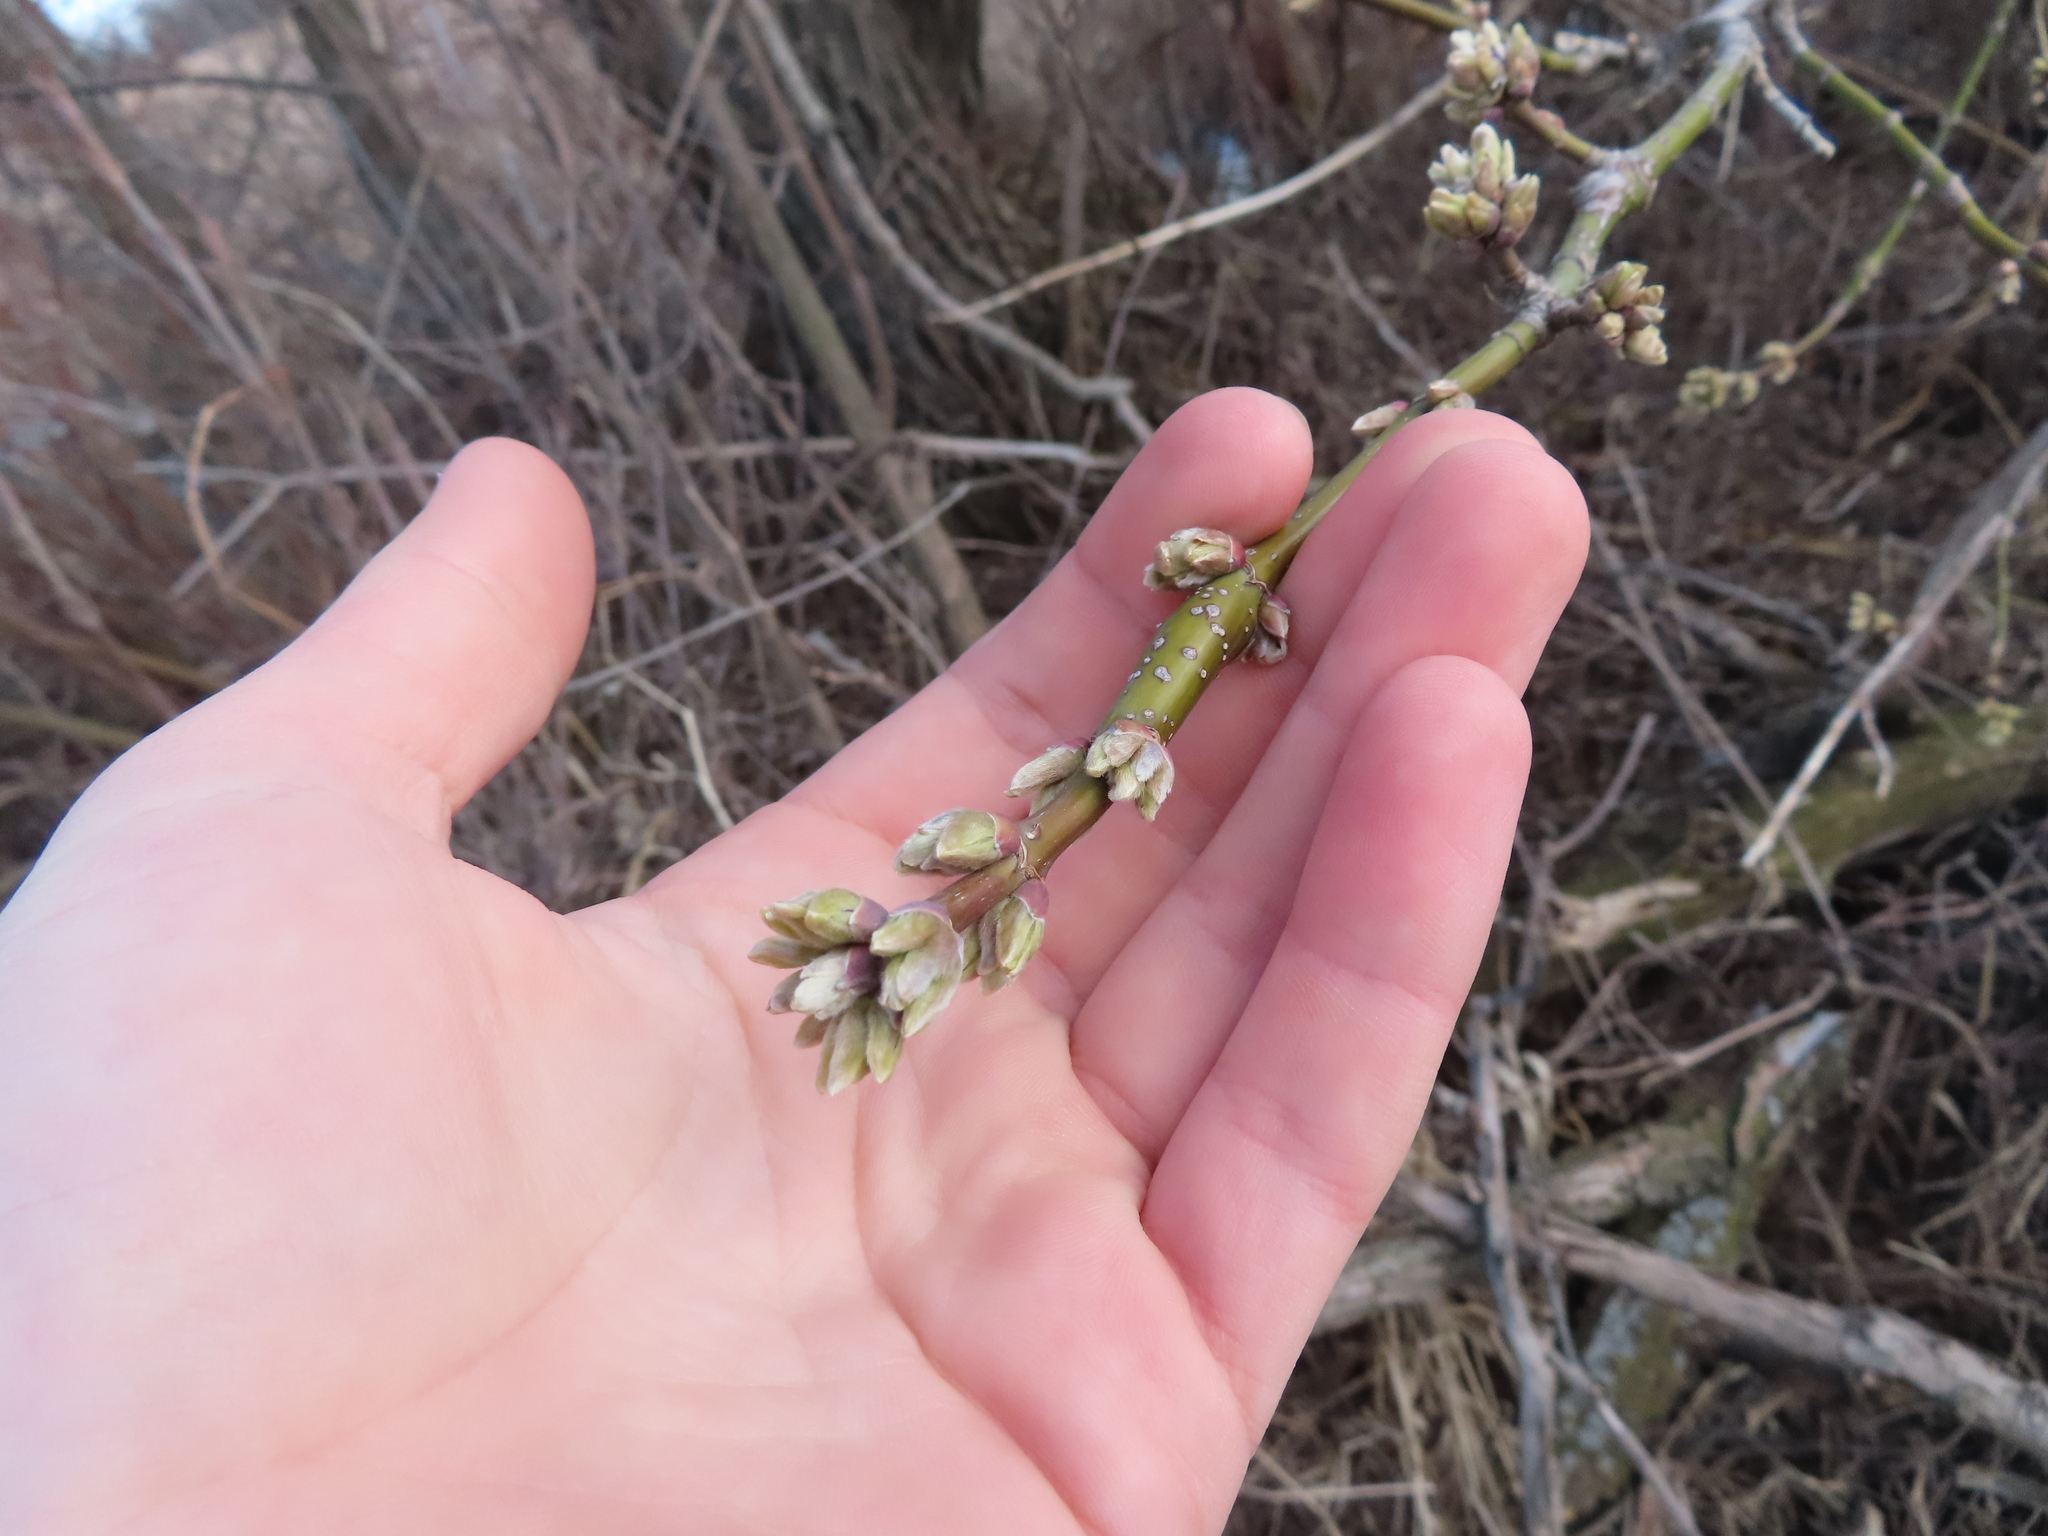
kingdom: Plantae
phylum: Tracheophyta
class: Magnoliopsida
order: Sapindales
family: Sapindaceae
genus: Acer
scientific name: Acer negundo
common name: Ashleaf maple
